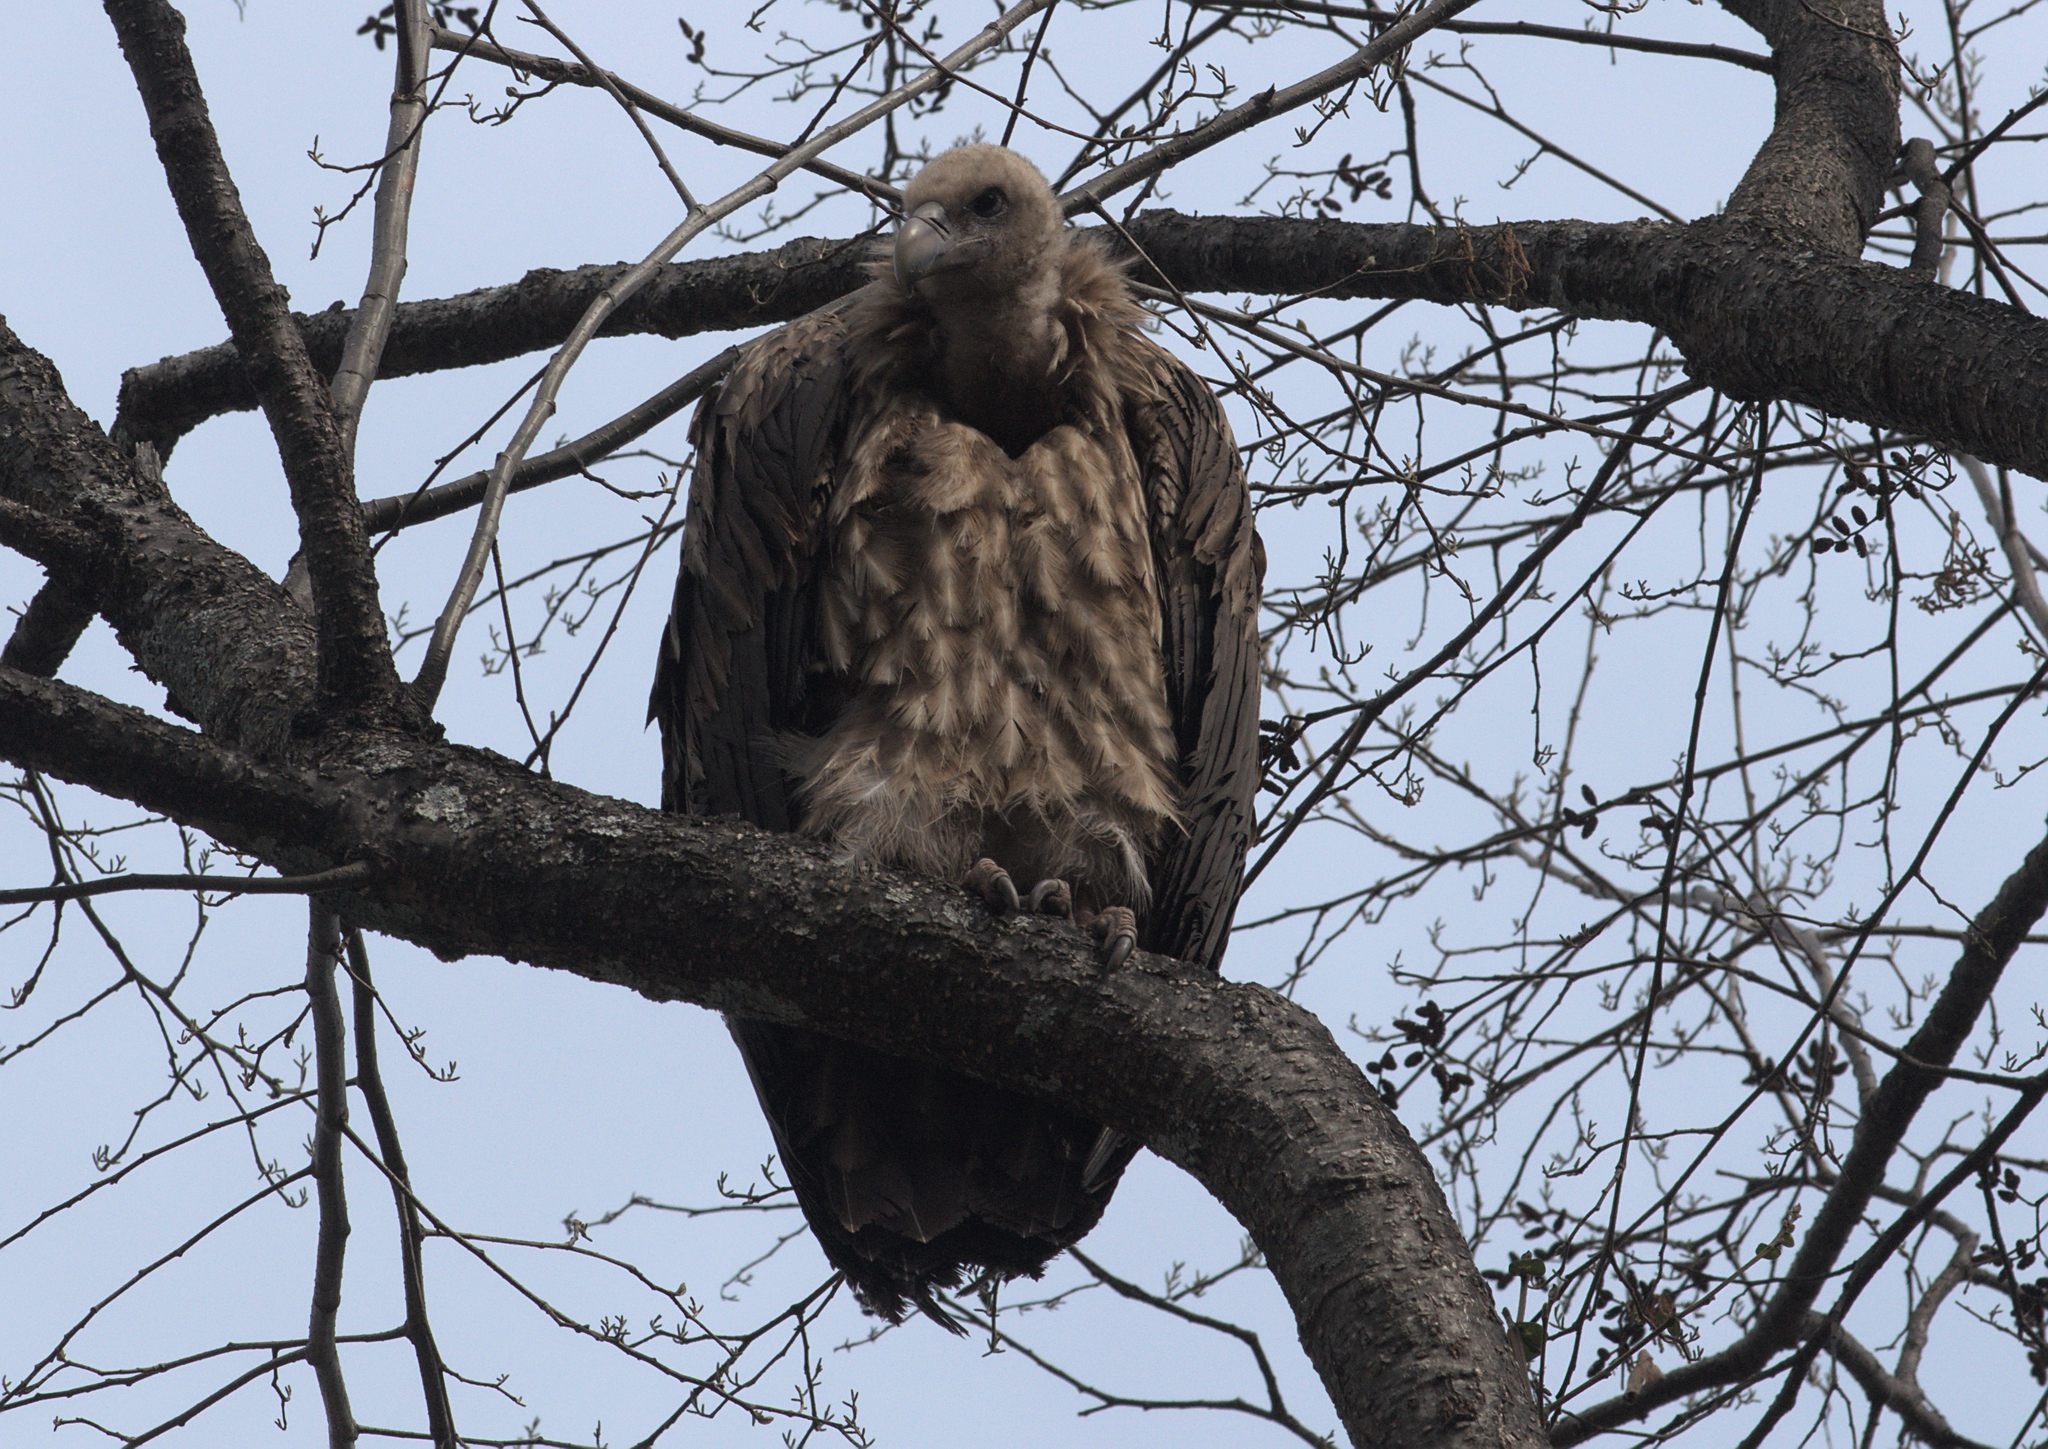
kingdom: Animalia
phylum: Chordata
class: Aves
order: Accipitriformes
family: Accipitridae
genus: Gyps
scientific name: Gyps himalayensis
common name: Himalayan griffon
